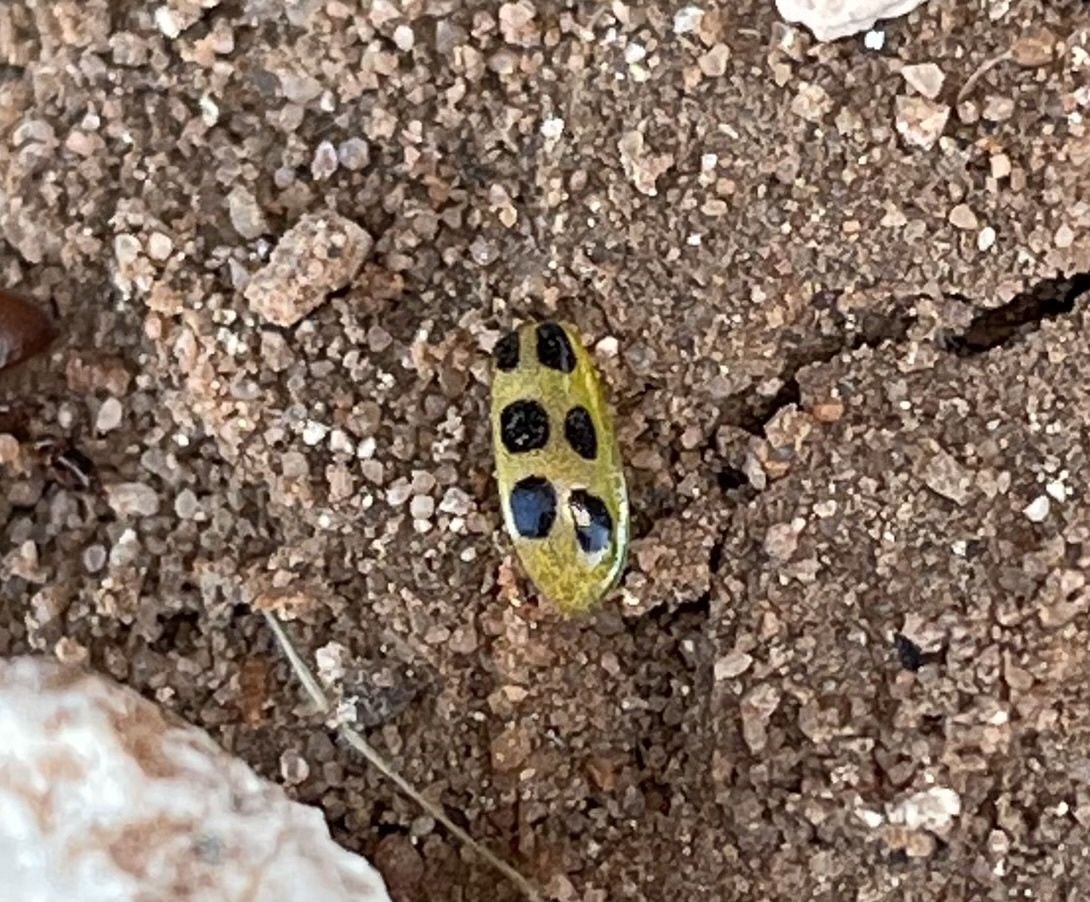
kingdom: Animalia
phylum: Arthropoda
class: Insecta
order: Coleoptera
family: Chrysomelidae
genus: Diabrotica
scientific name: Diabrotica undecimpunctata
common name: Spotted cucumber beetle
